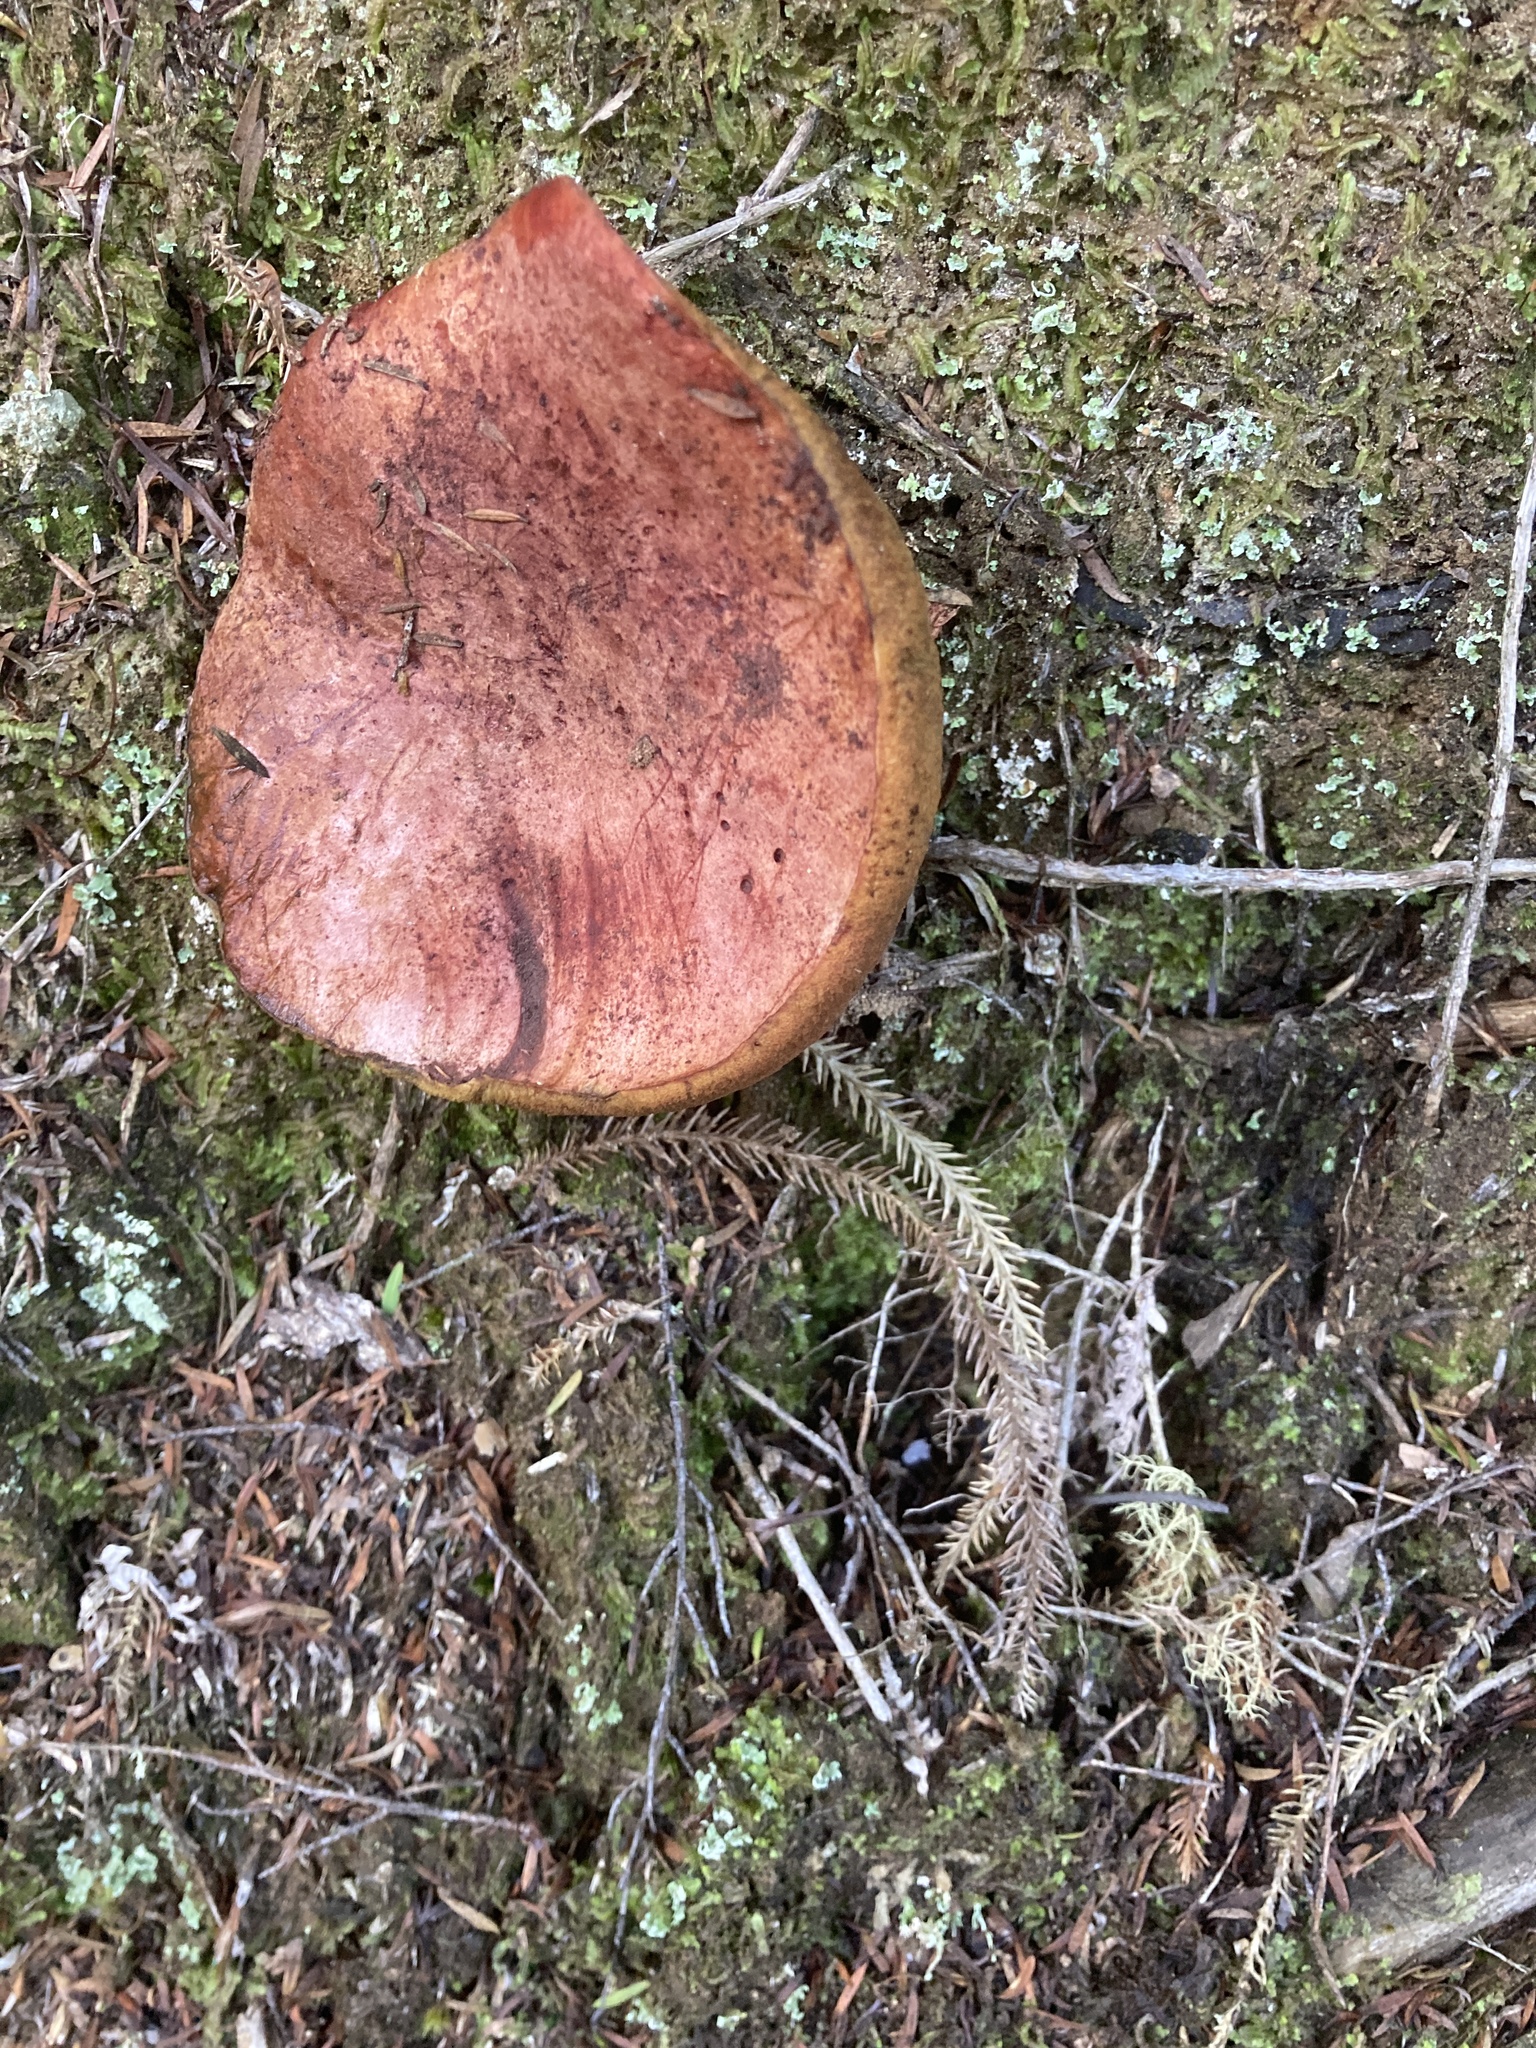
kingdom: Fungi
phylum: Basidiomycota
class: Agaricomycetes
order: Boletales
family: Suillaceae
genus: Suillus
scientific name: Suillus lakei
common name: Western painted suillus
